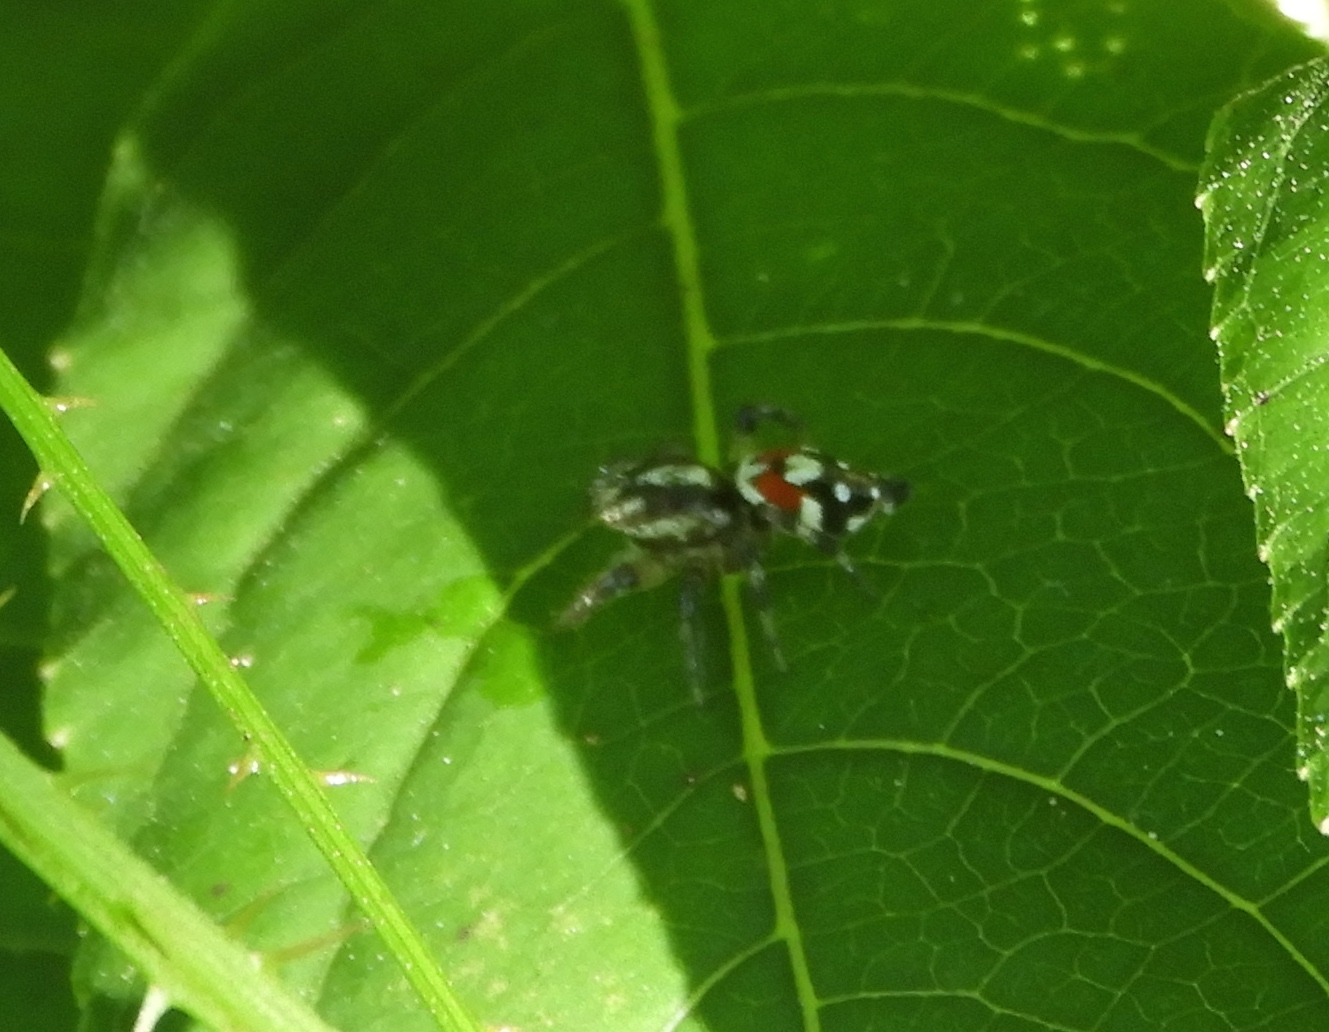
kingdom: Animalia
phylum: Arthropoda
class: Arachnida
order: Araneae
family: Salticidae
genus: Nycerella
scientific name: Nycerella delecta
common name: Jumping spiders
